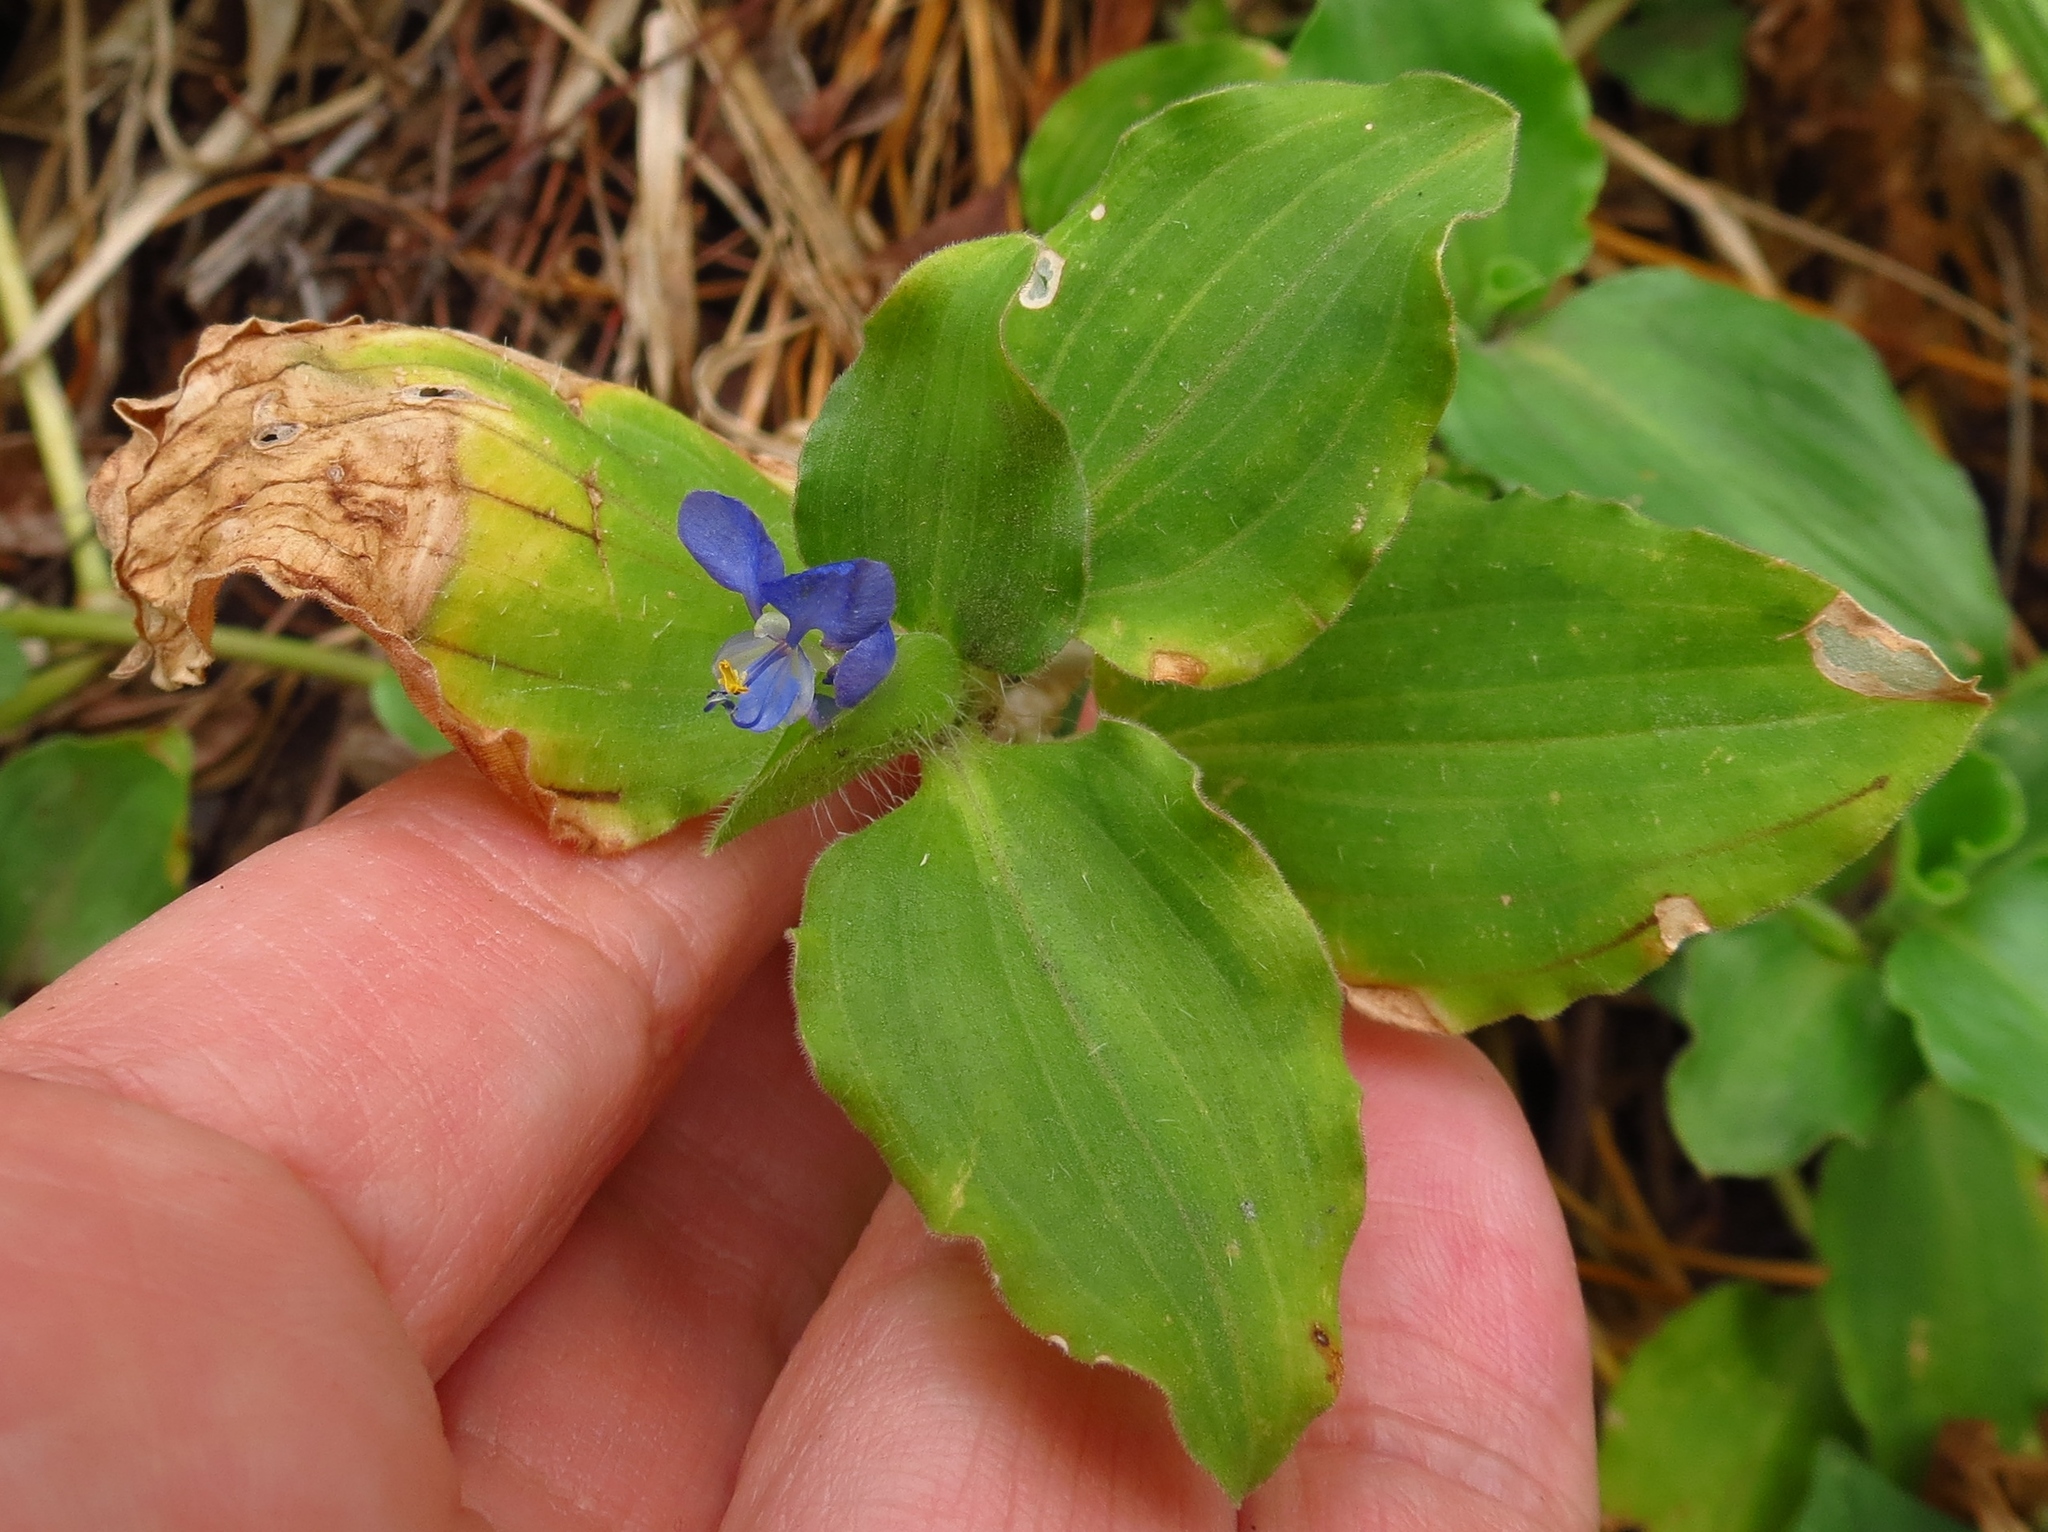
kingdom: Plantae
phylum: Tracheophyta
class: Liliopsida
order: Commelinales
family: Commelinaceae
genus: Commelina
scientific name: Commelina benghalensis
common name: Jio
